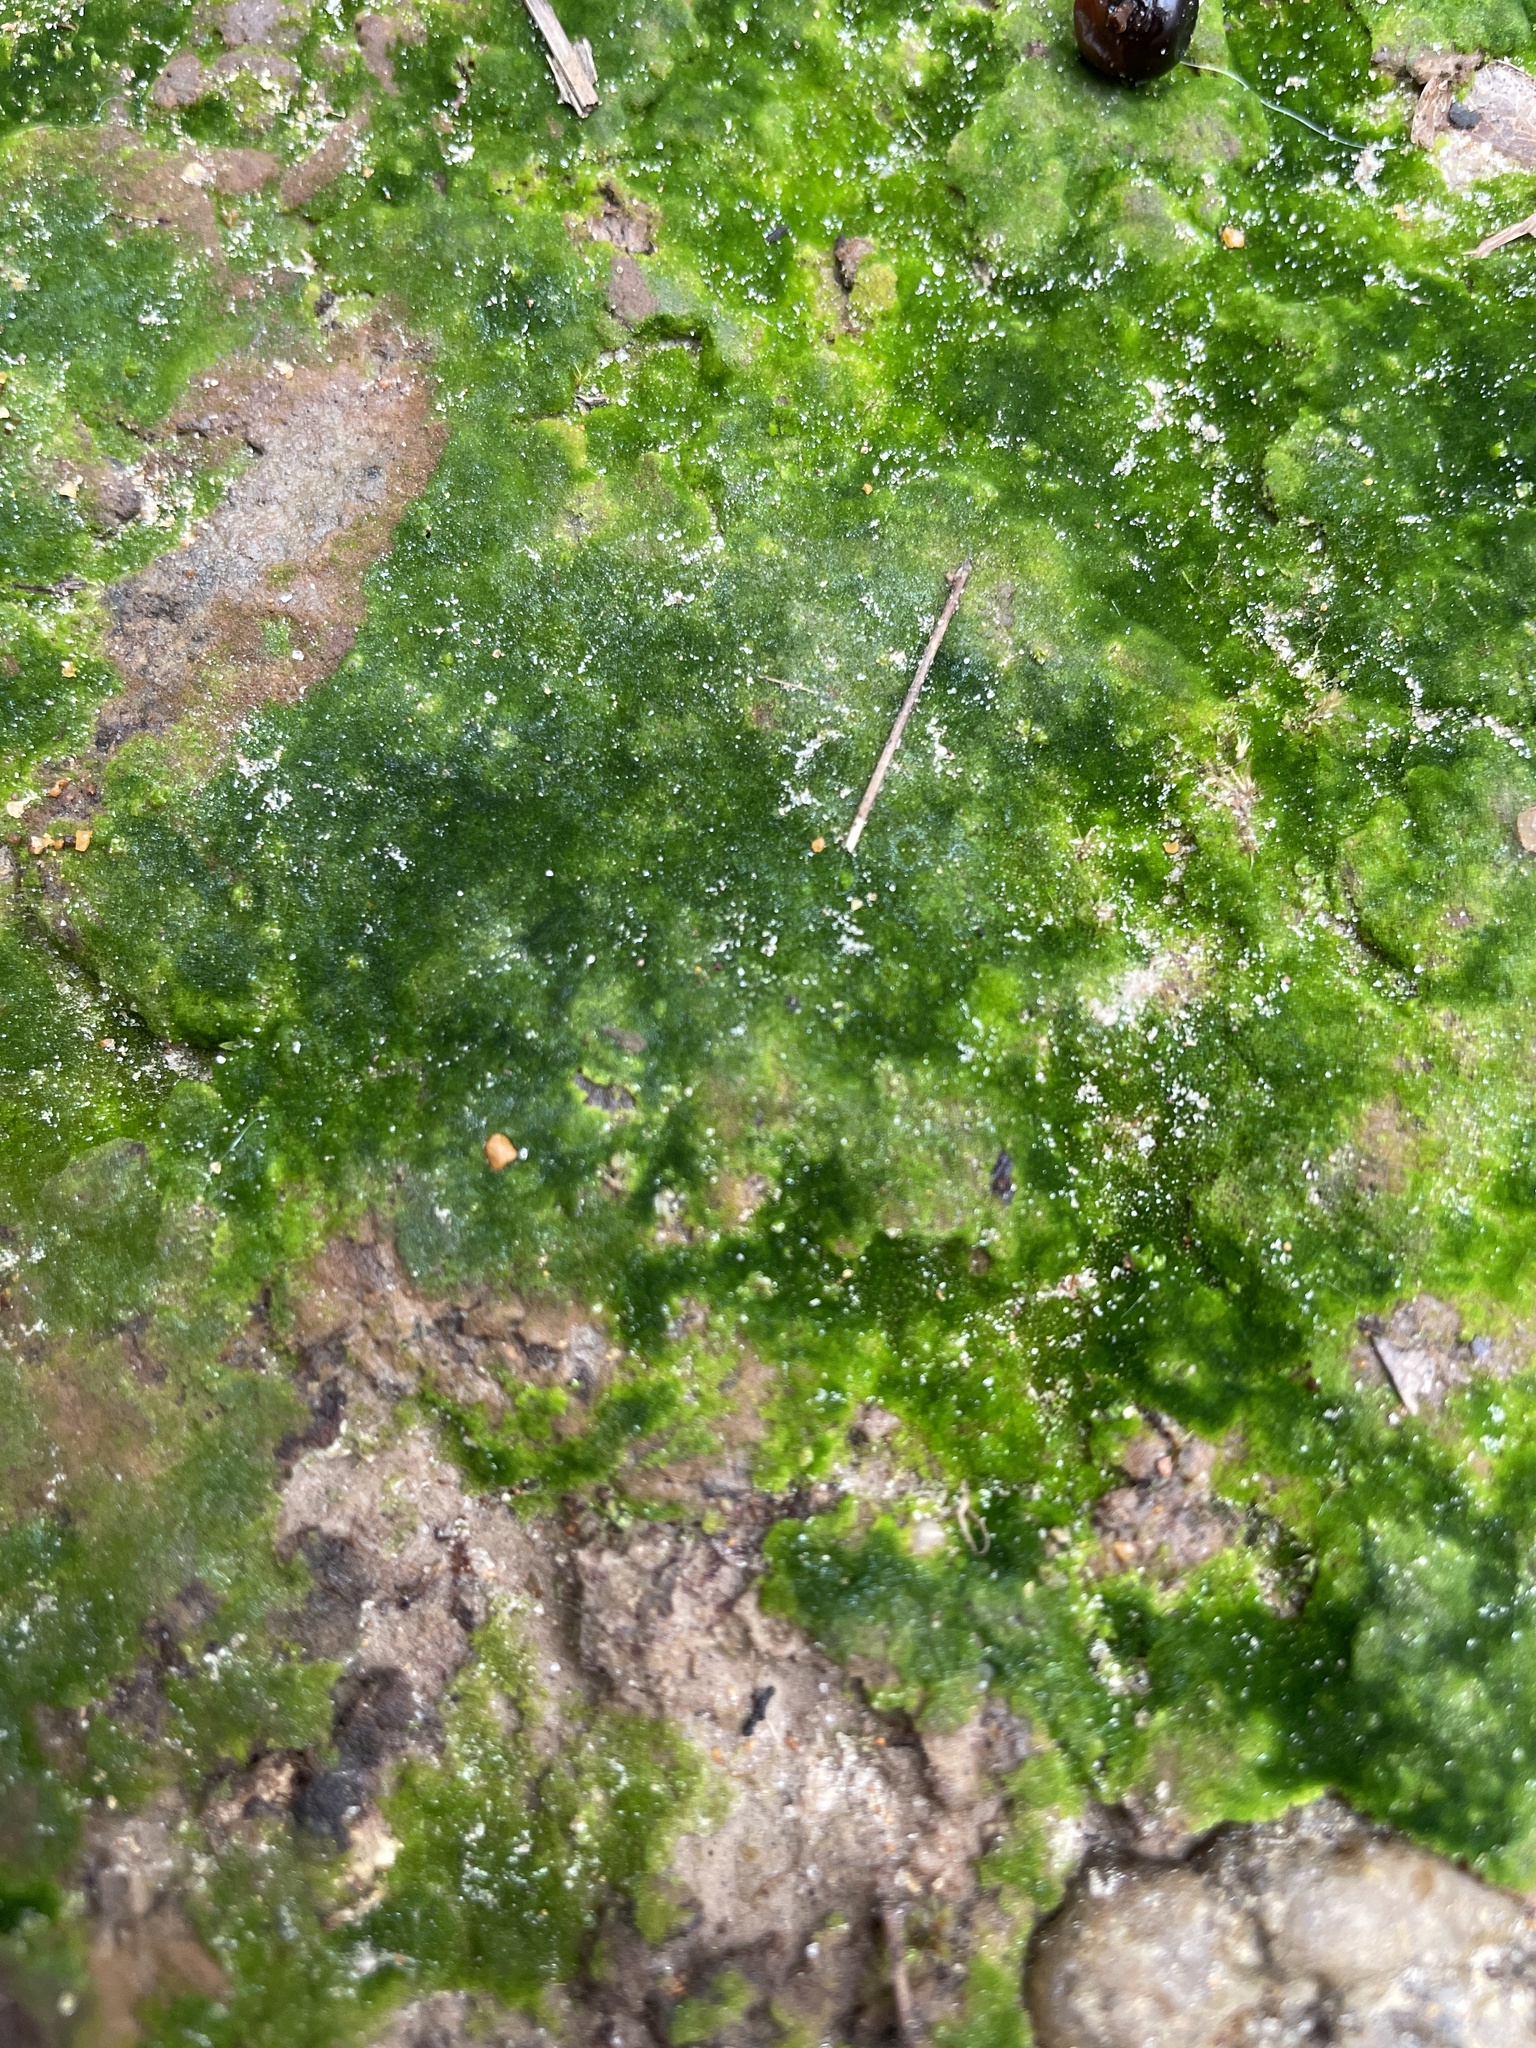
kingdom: Chromista
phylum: Ochrophyta
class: Xanthophyceae
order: Vaucheriales
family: Vaucheriaceae
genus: Vaucheria
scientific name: Vaucheria
